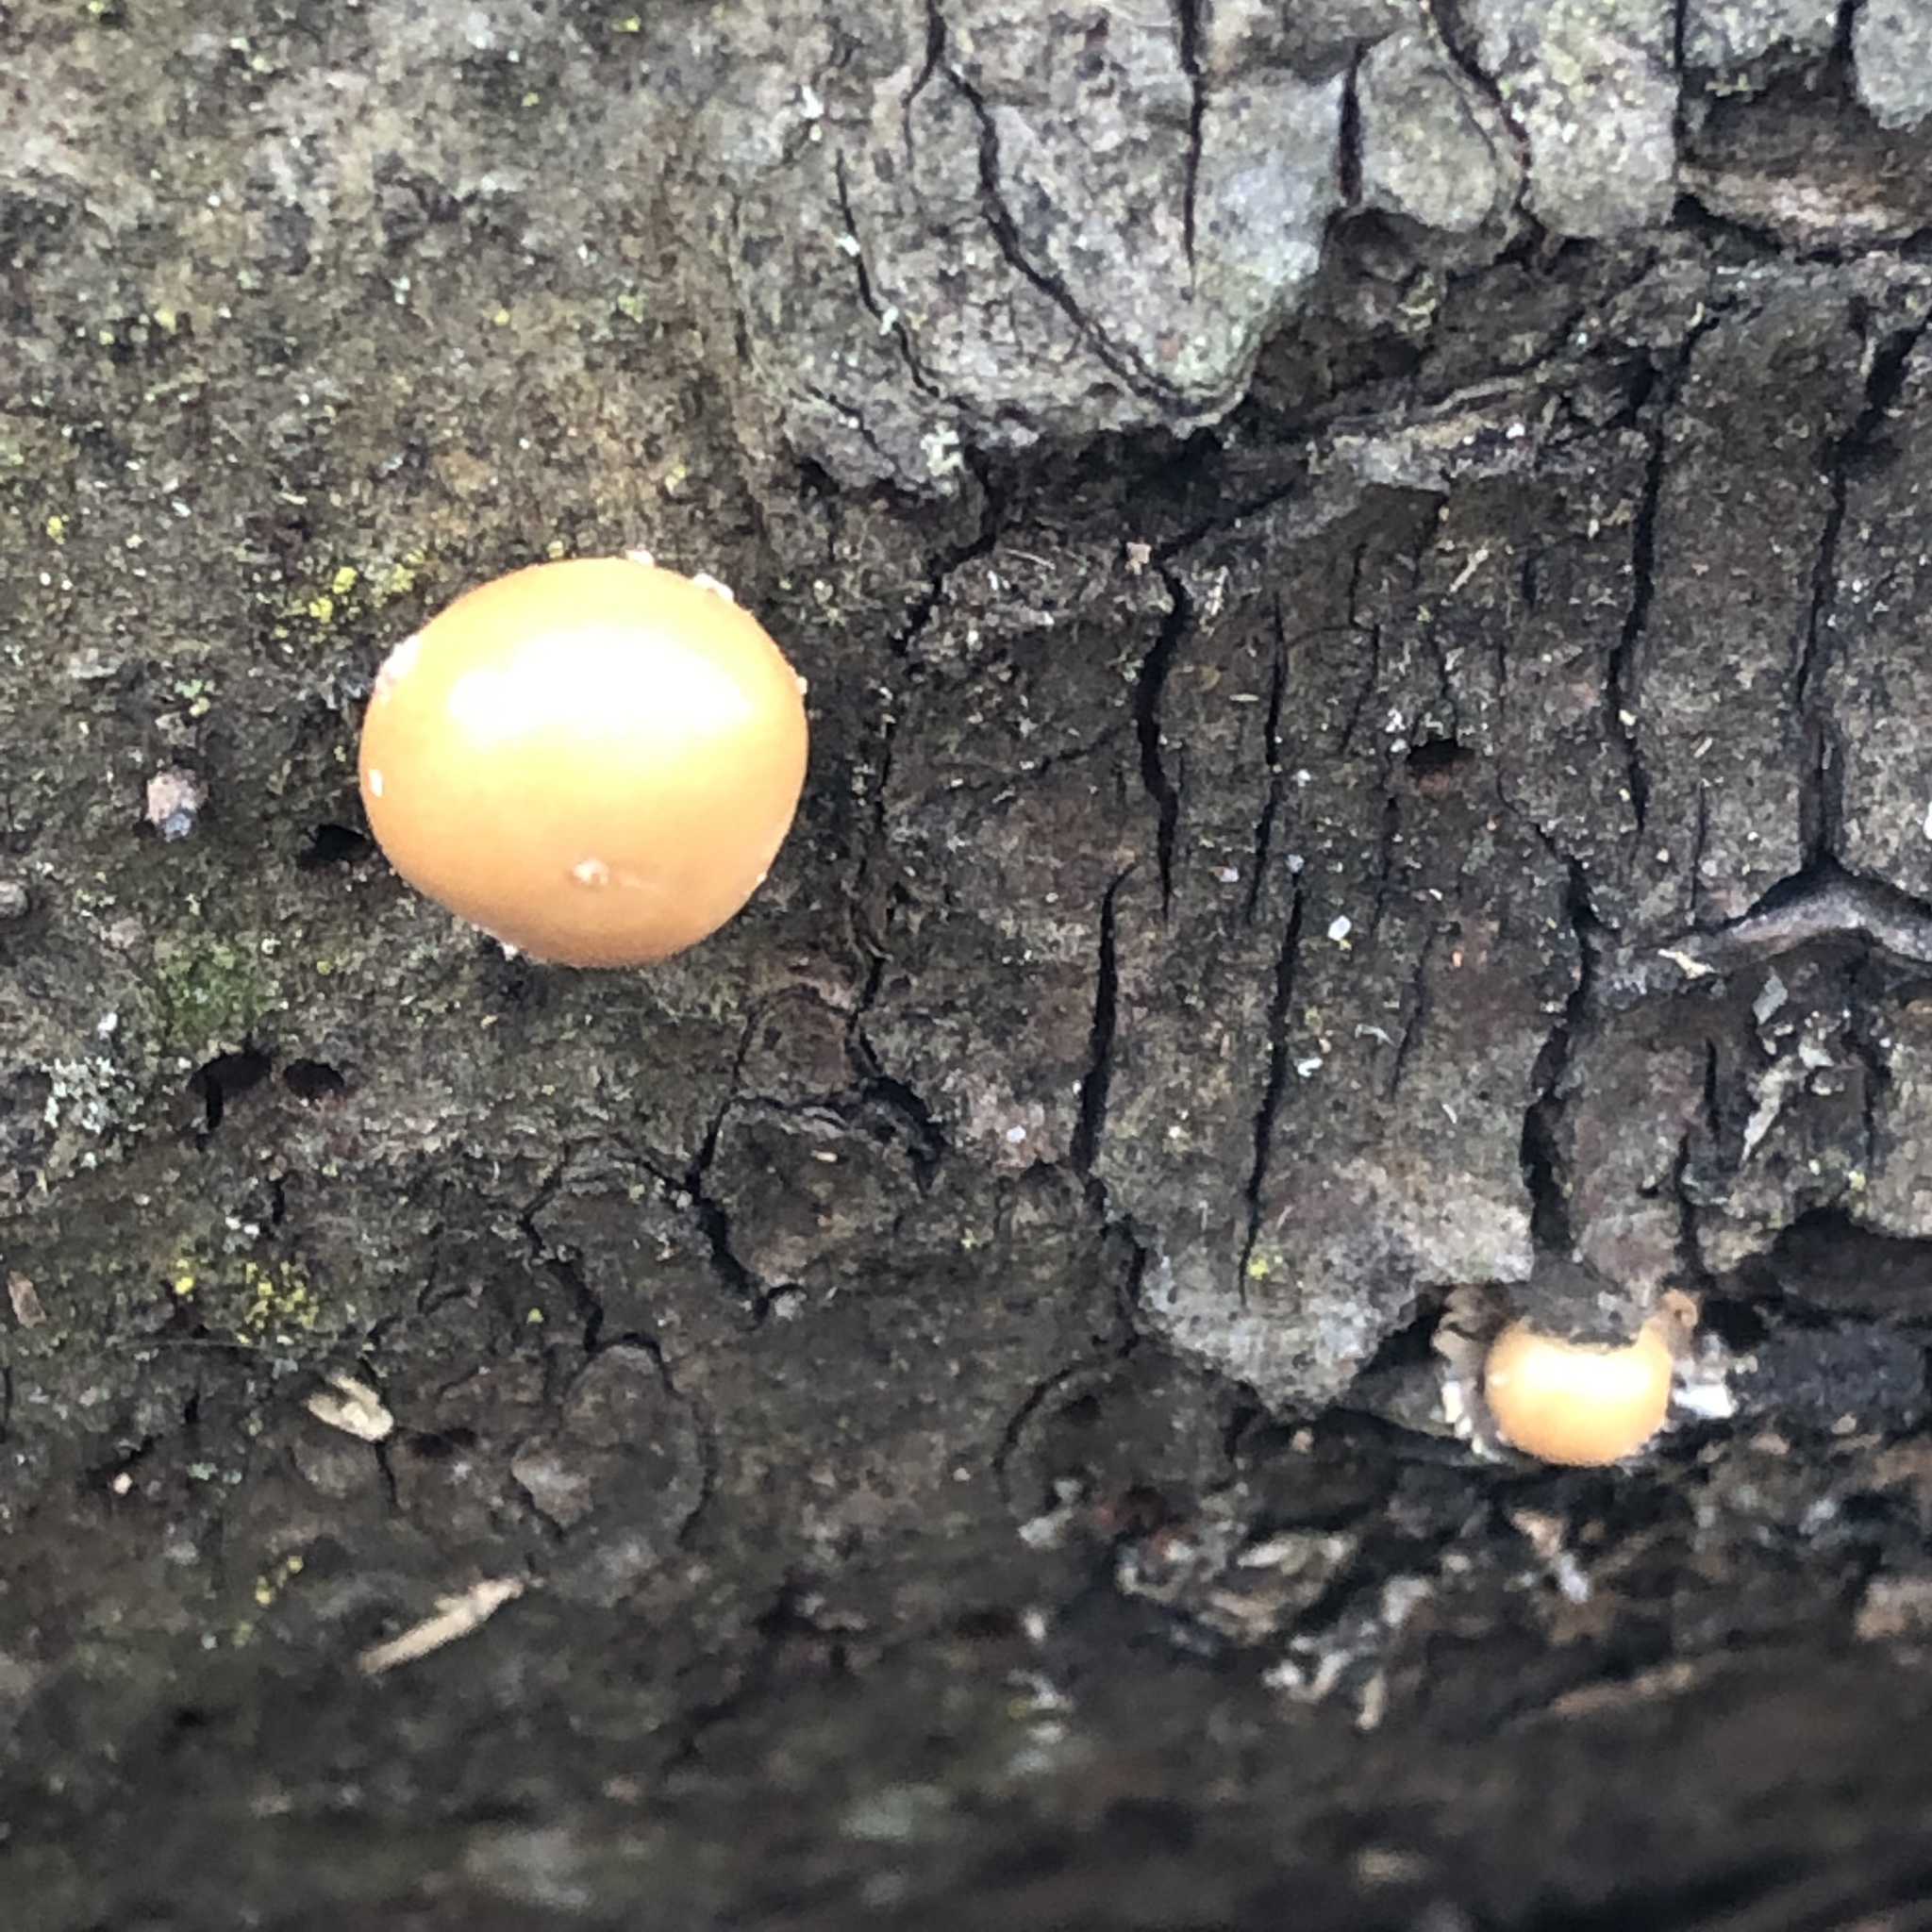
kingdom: Fungi
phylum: Basidiomycota
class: Agaricomycetes
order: Polyporales
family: Polyporaceae
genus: Cryptoporus
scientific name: Cryptoporus volvatus
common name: Veiled polypore
